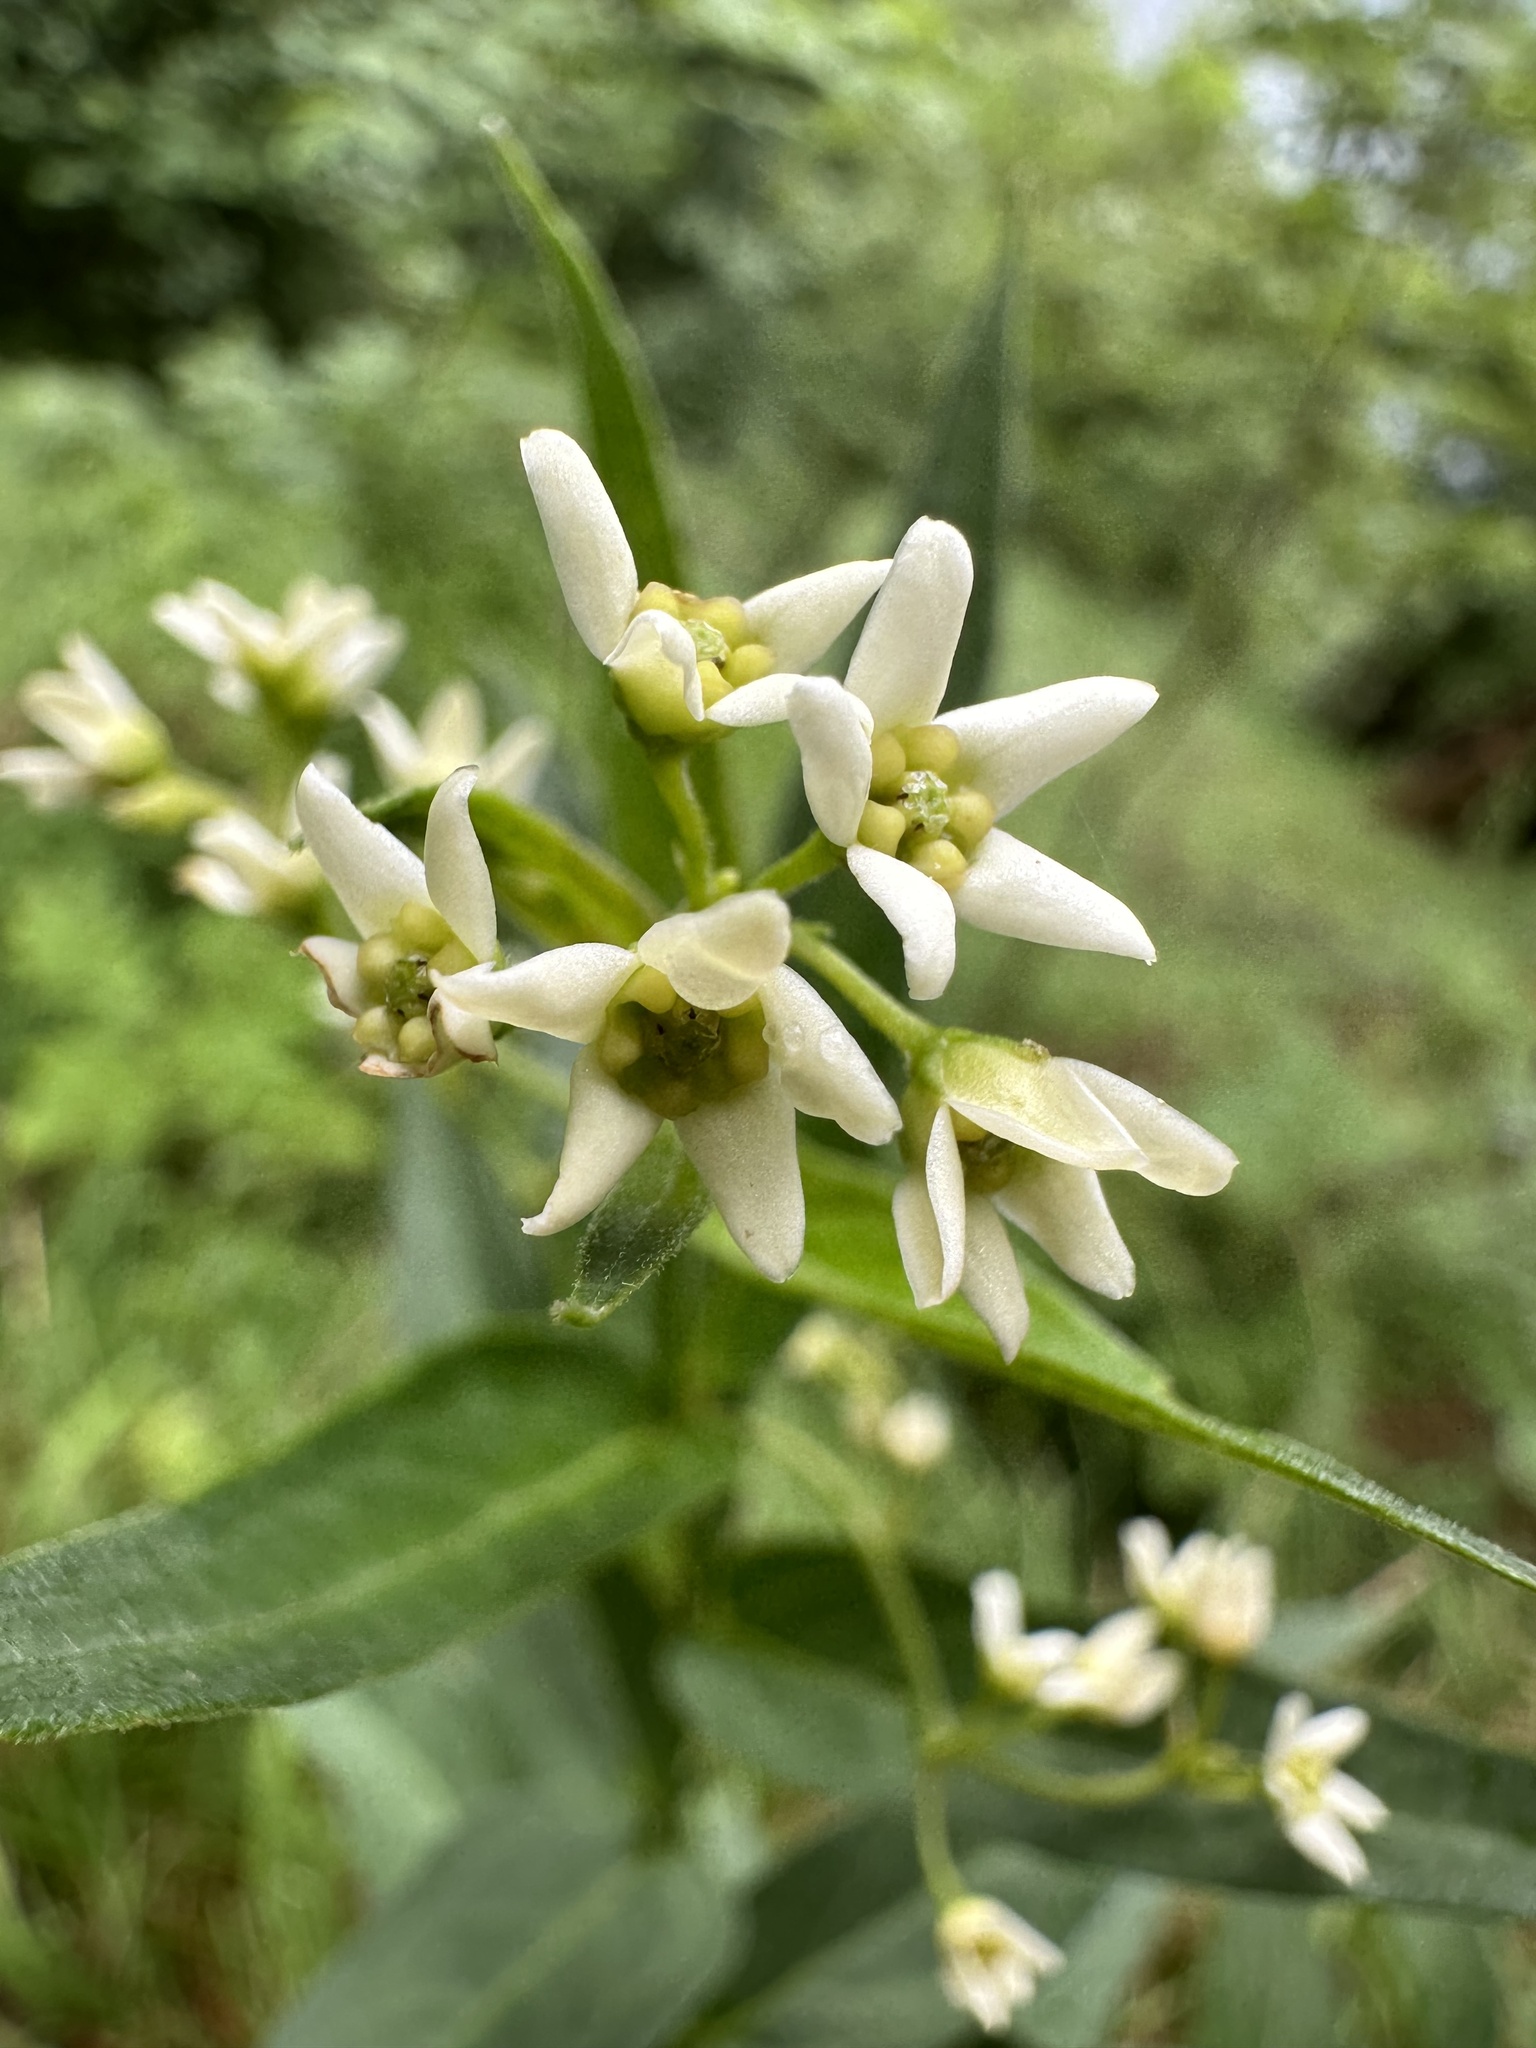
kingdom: Plantae
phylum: Tracheophyta
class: Magnoliopsida
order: Gentianales
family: Apocynaceae
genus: Vincetoxicum
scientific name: Vincetoxicum hirundinaria
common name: White swallowwort
